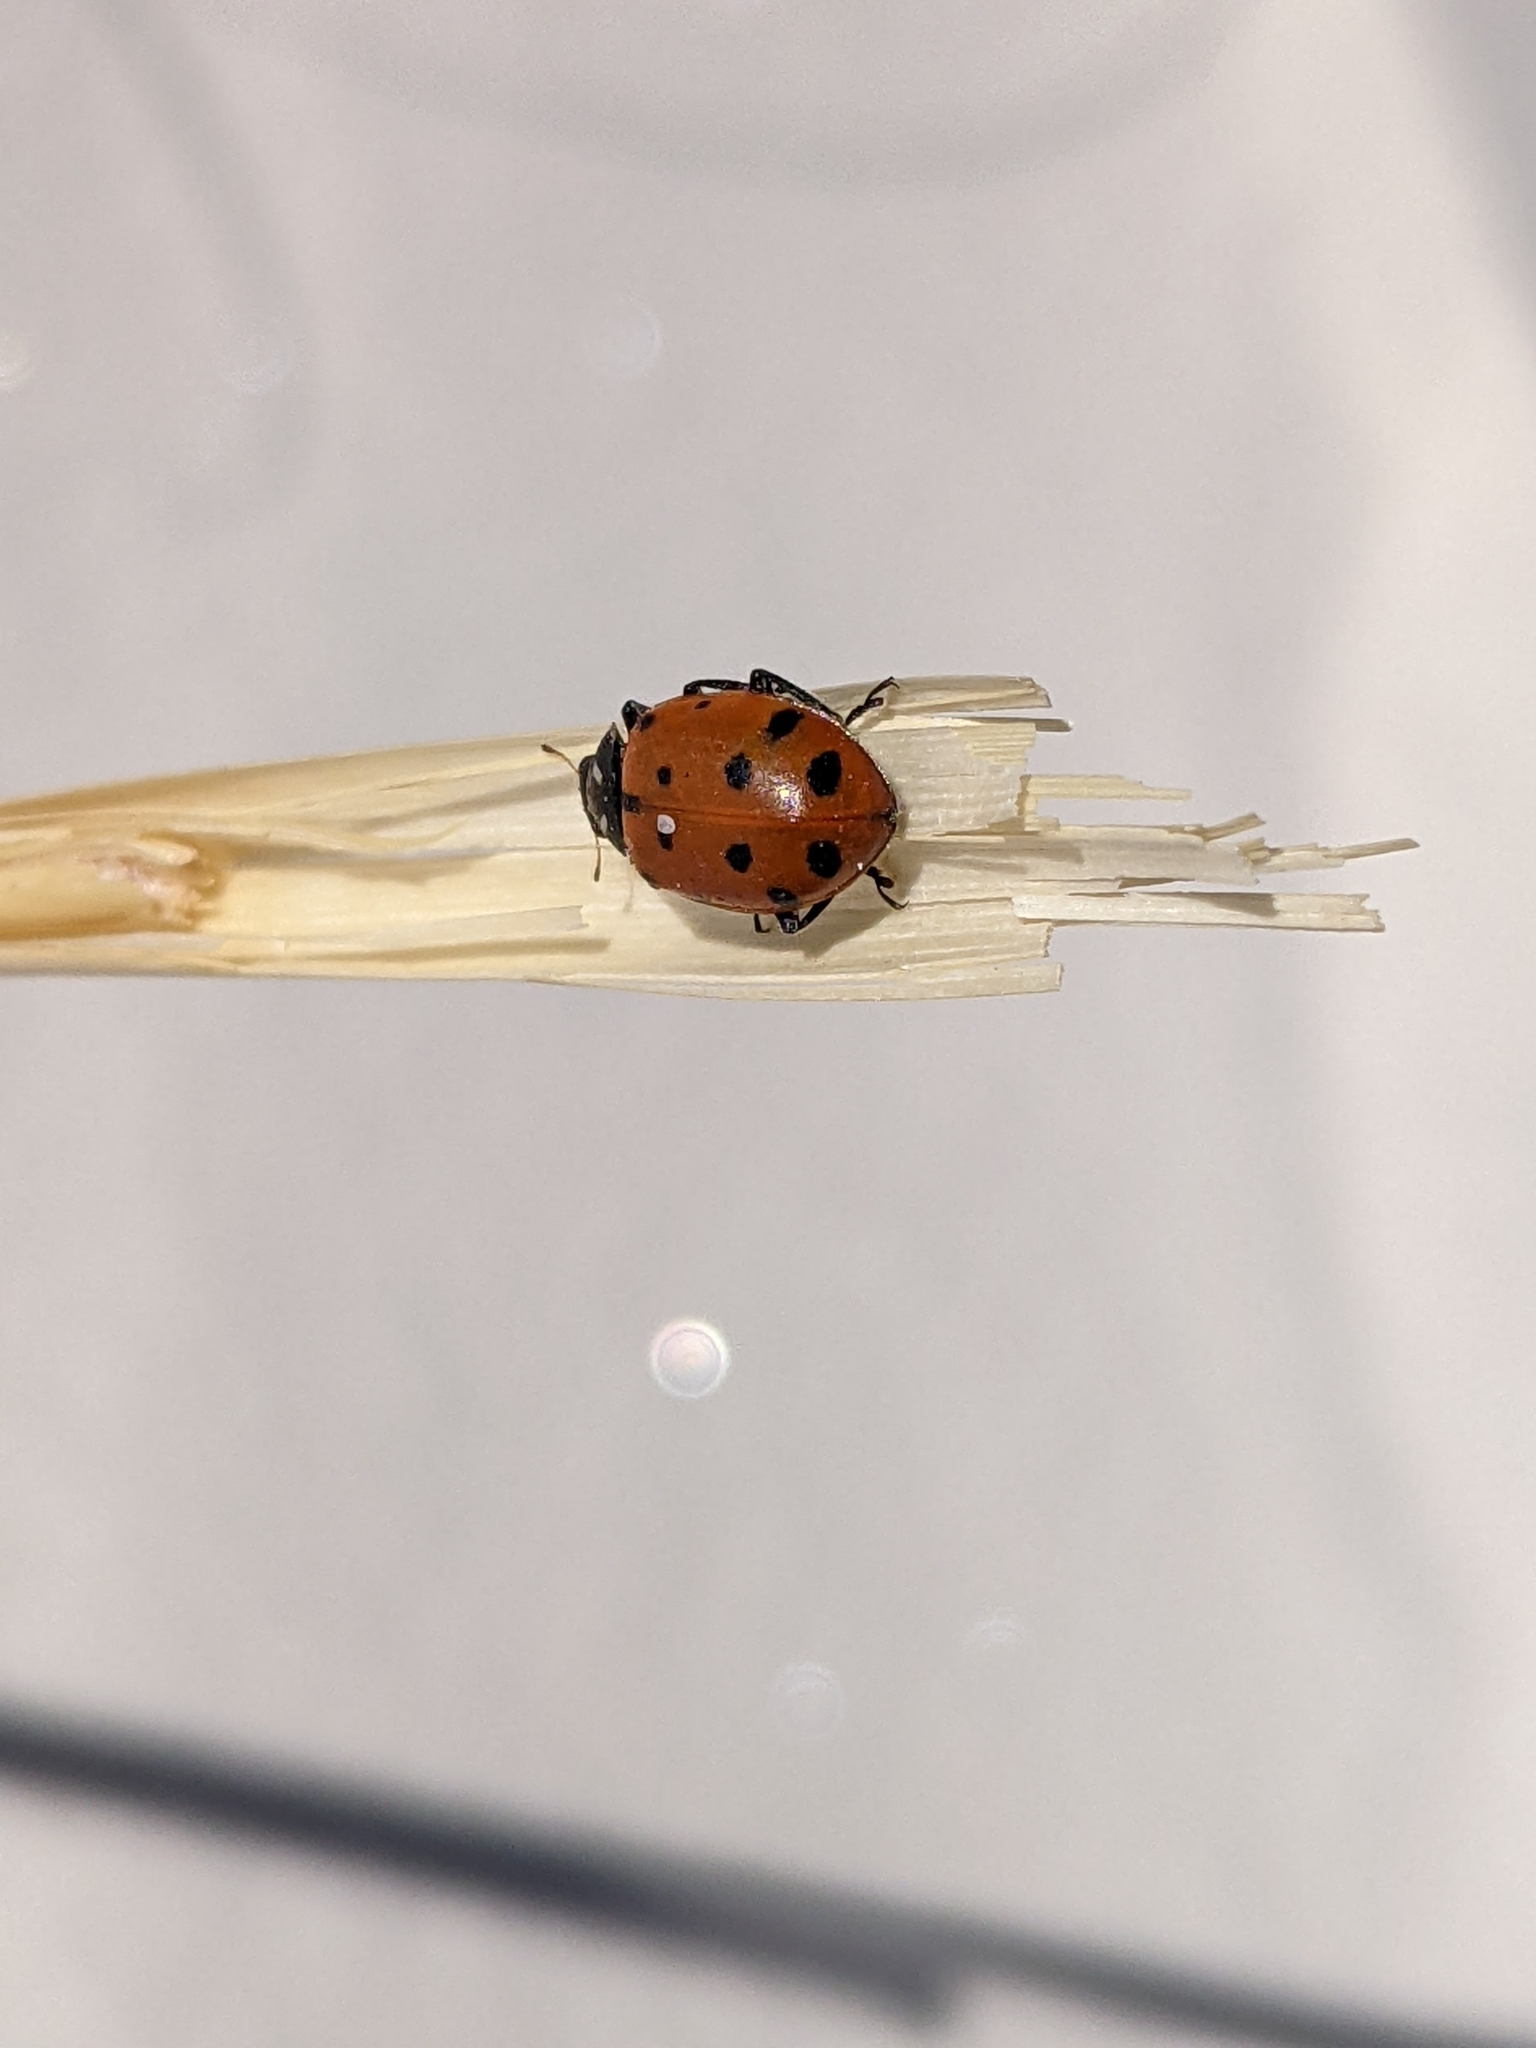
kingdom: Animalia
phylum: Arthropoda
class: Insecta
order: Coleoptera
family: Coccinellidae
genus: Hippodamia
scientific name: Hippodamia convergens
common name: Convergent lady beetle
